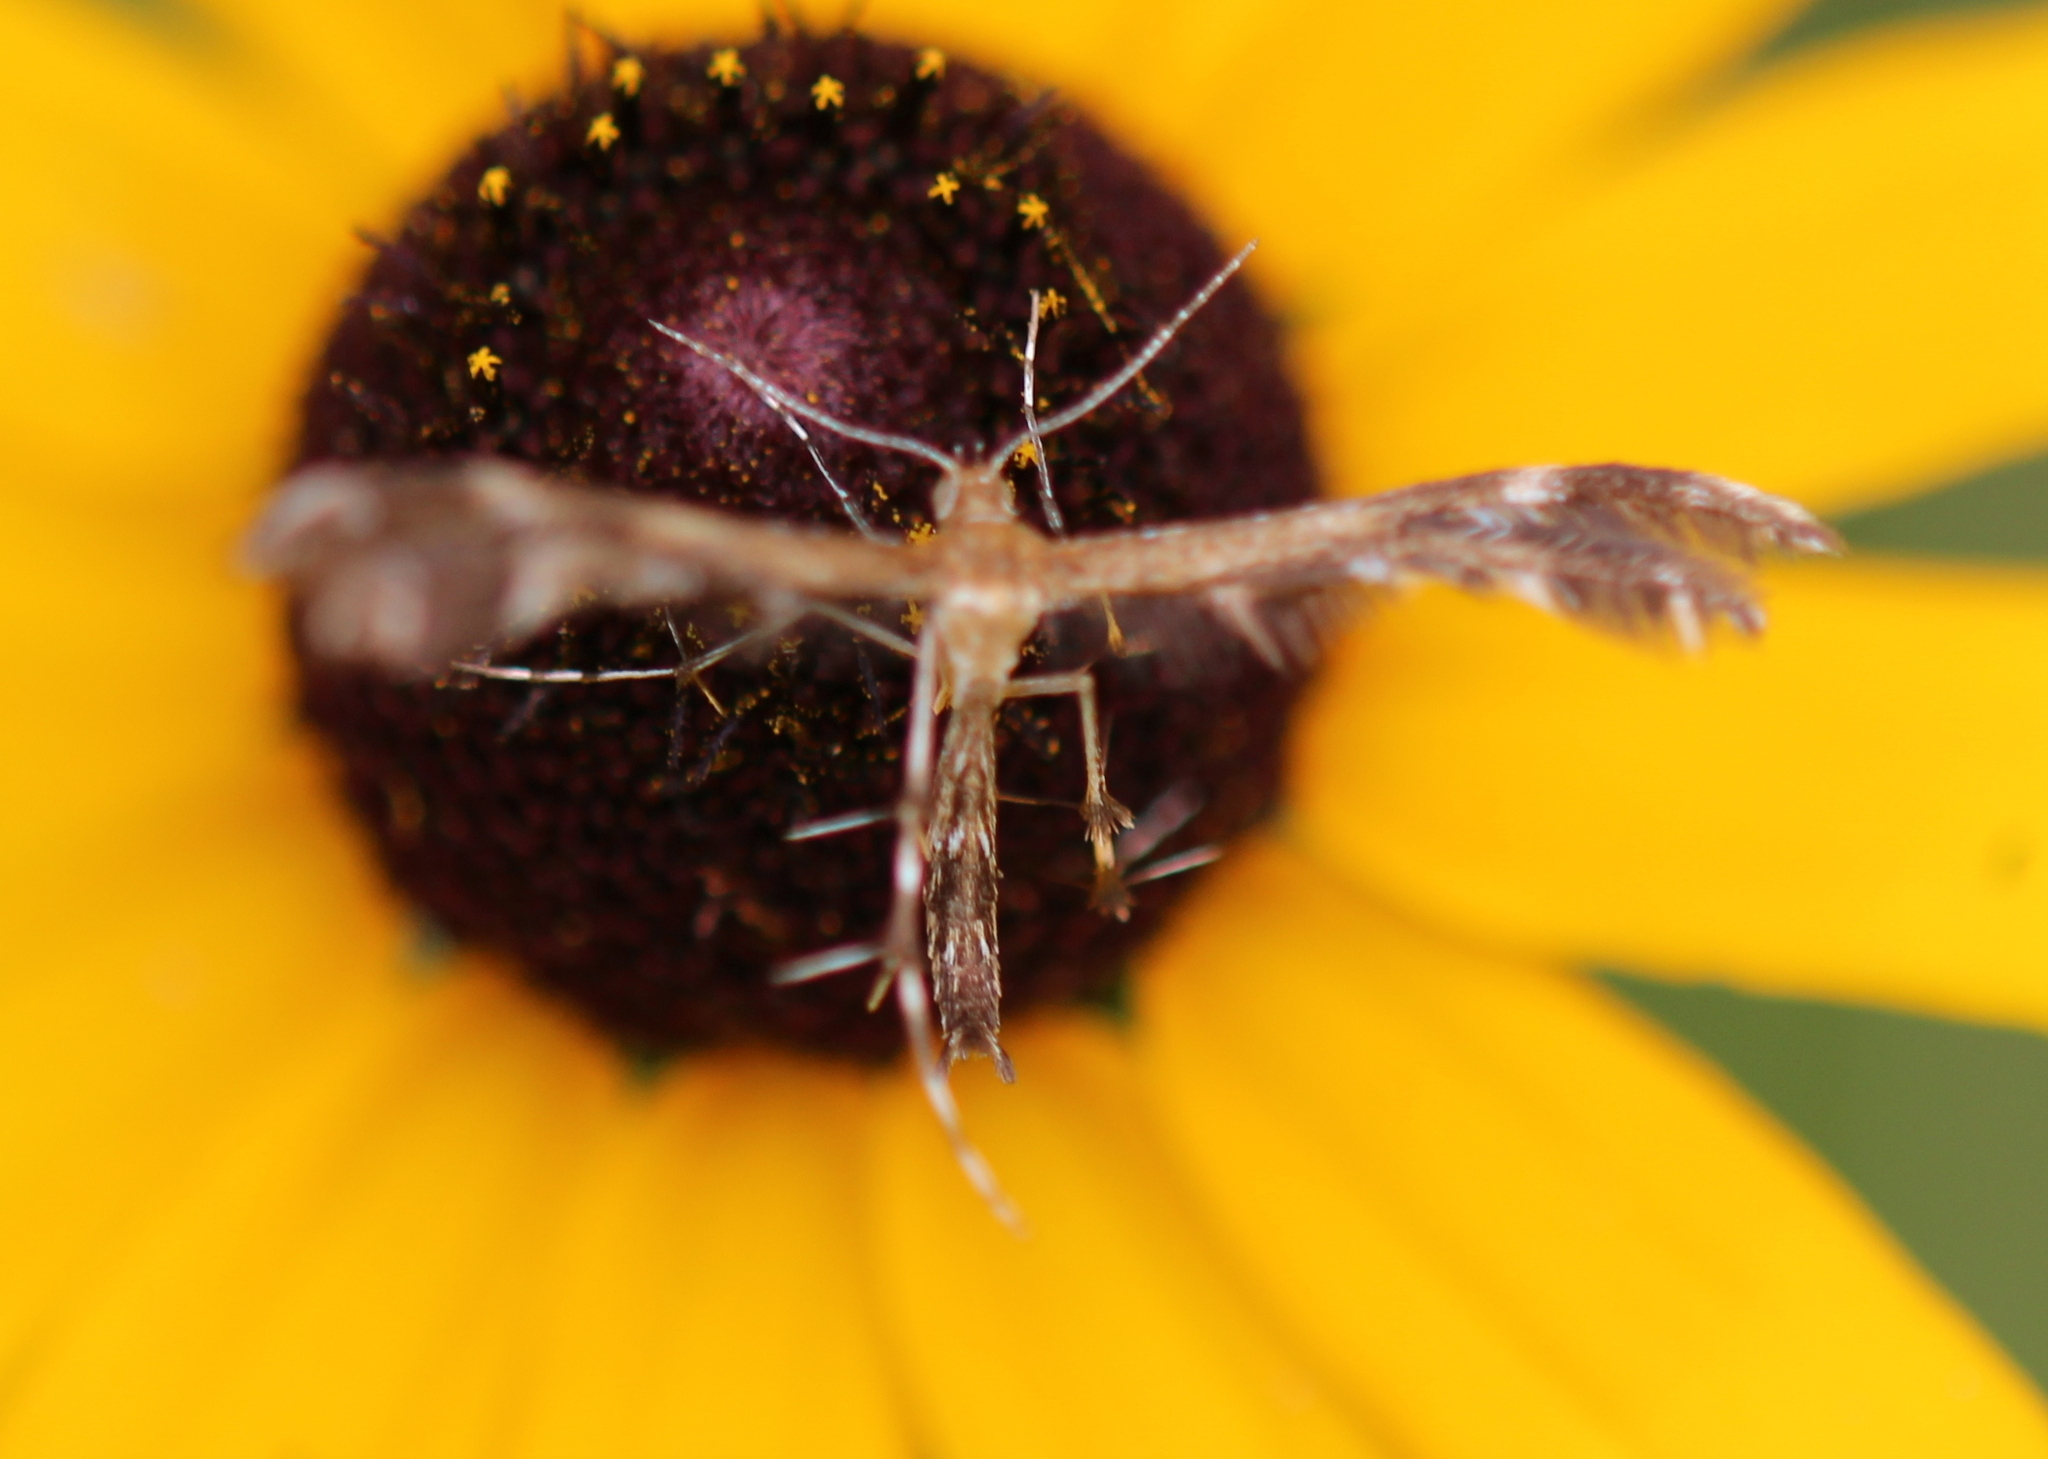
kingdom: Animalia
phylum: Arthropoda
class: Insecta
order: Lepidoptera
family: Pterophoridae
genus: Dejongia
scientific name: Dejongia lobidactylus
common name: Lobed plume moth
